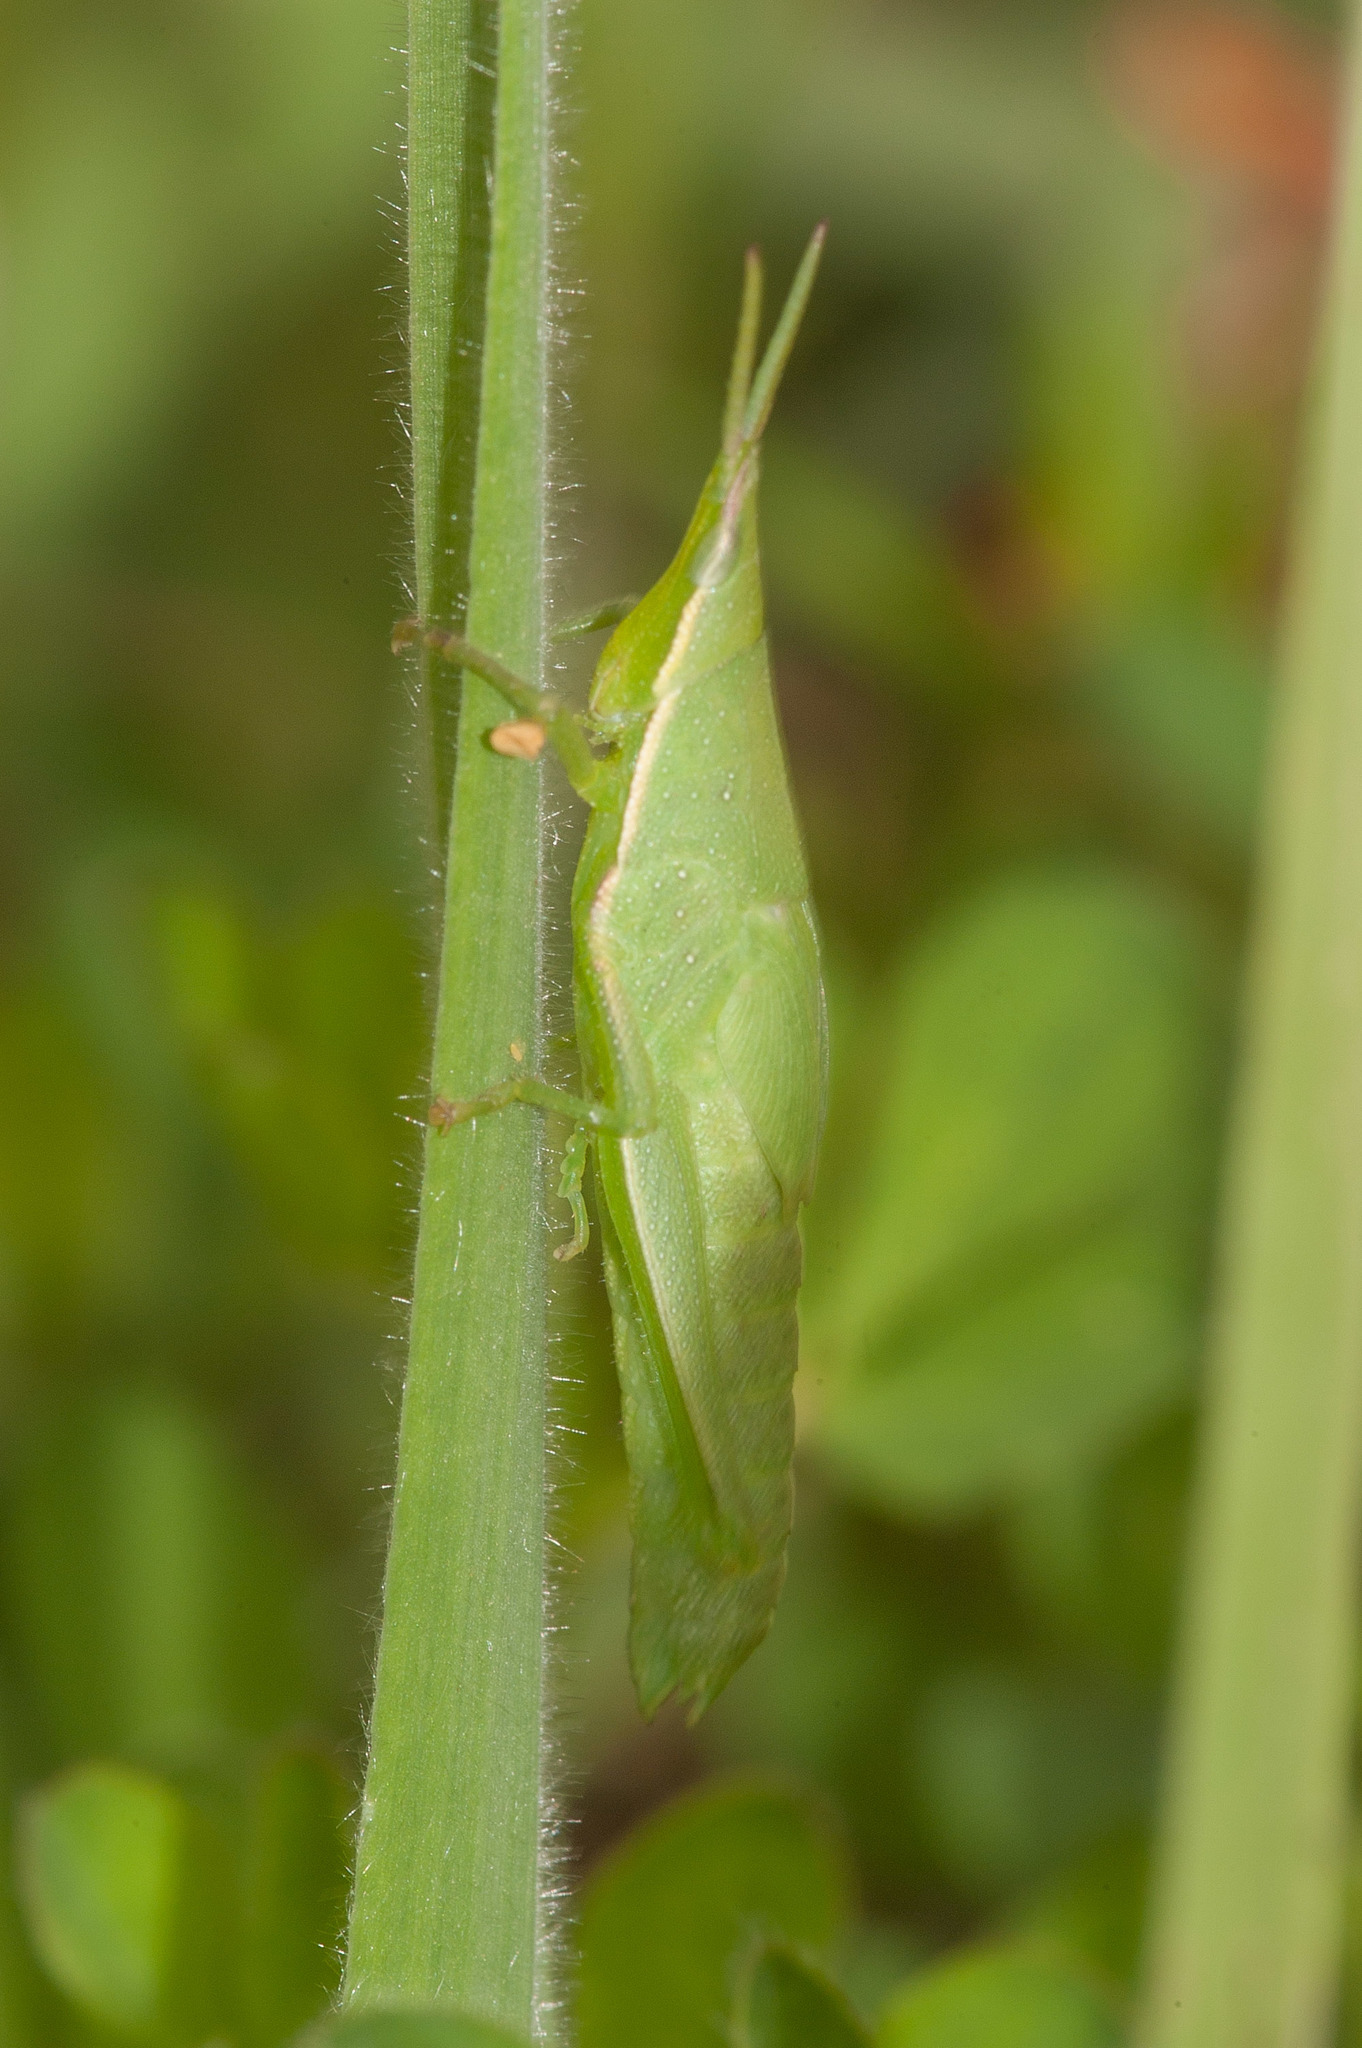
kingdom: Animalia
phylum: Arthropoda
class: Insecta
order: Orthoptera
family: Pyrgomorphidae
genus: Atractomorpha
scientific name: Atractomorpha australis
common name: Australian grass pyrgomorph
